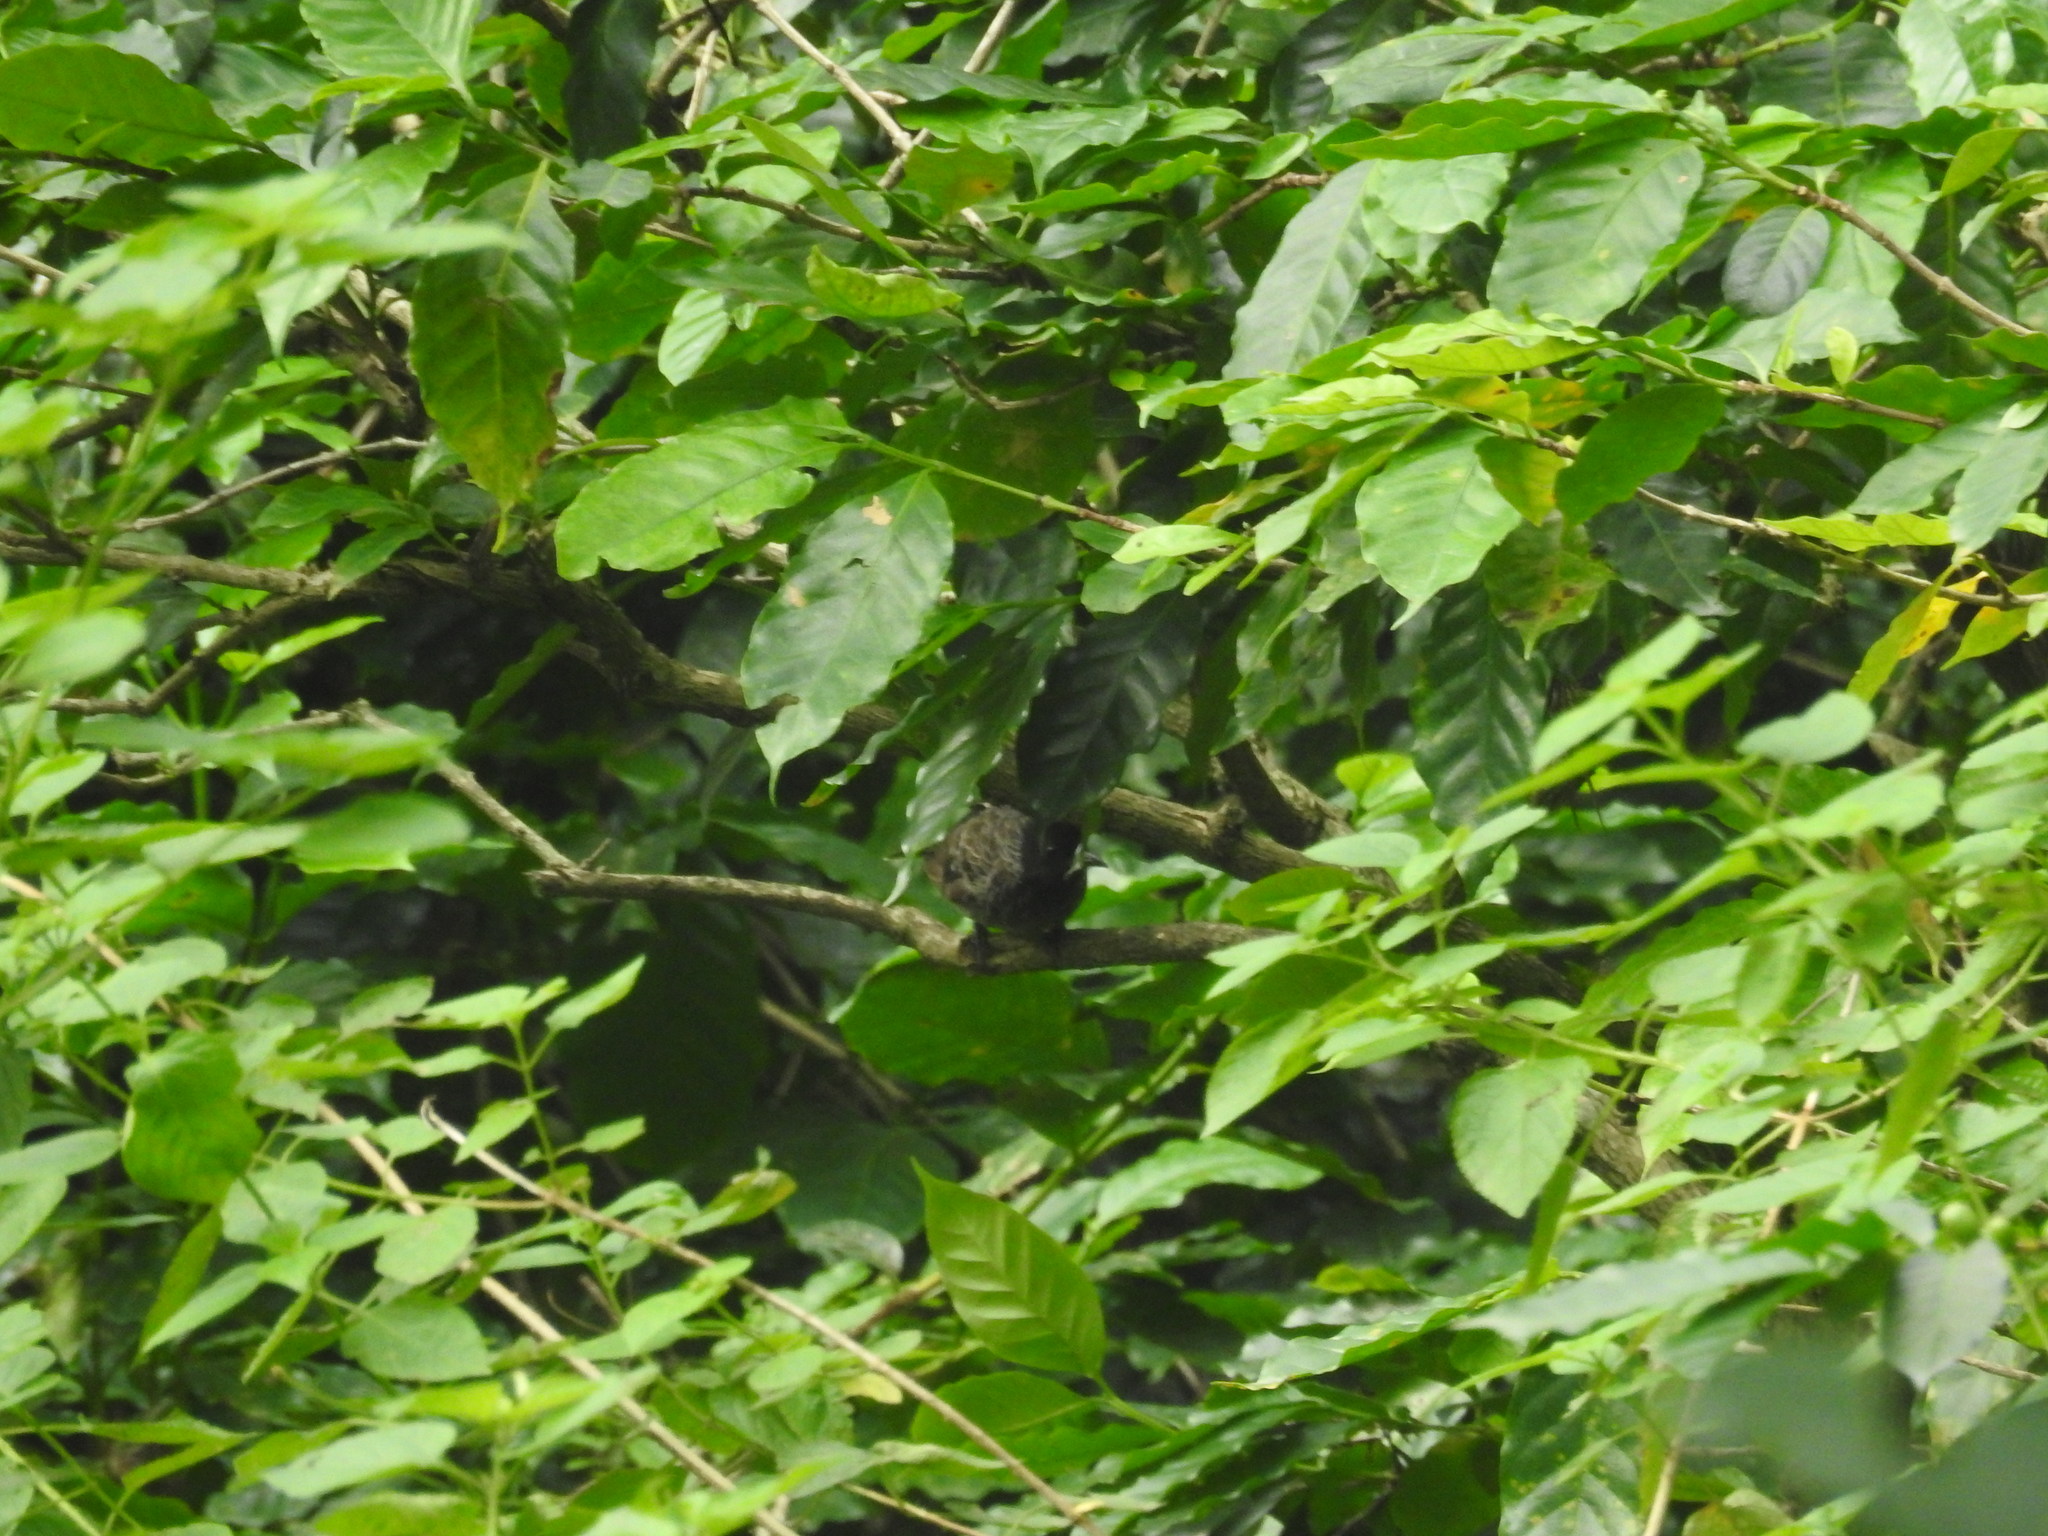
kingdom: Animalia
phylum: Chordata
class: Aves
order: Passeriformes
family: Pycnonotidae
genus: Pycnonotus
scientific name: Pycnonotus cafer
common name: Red-vented bulbul
